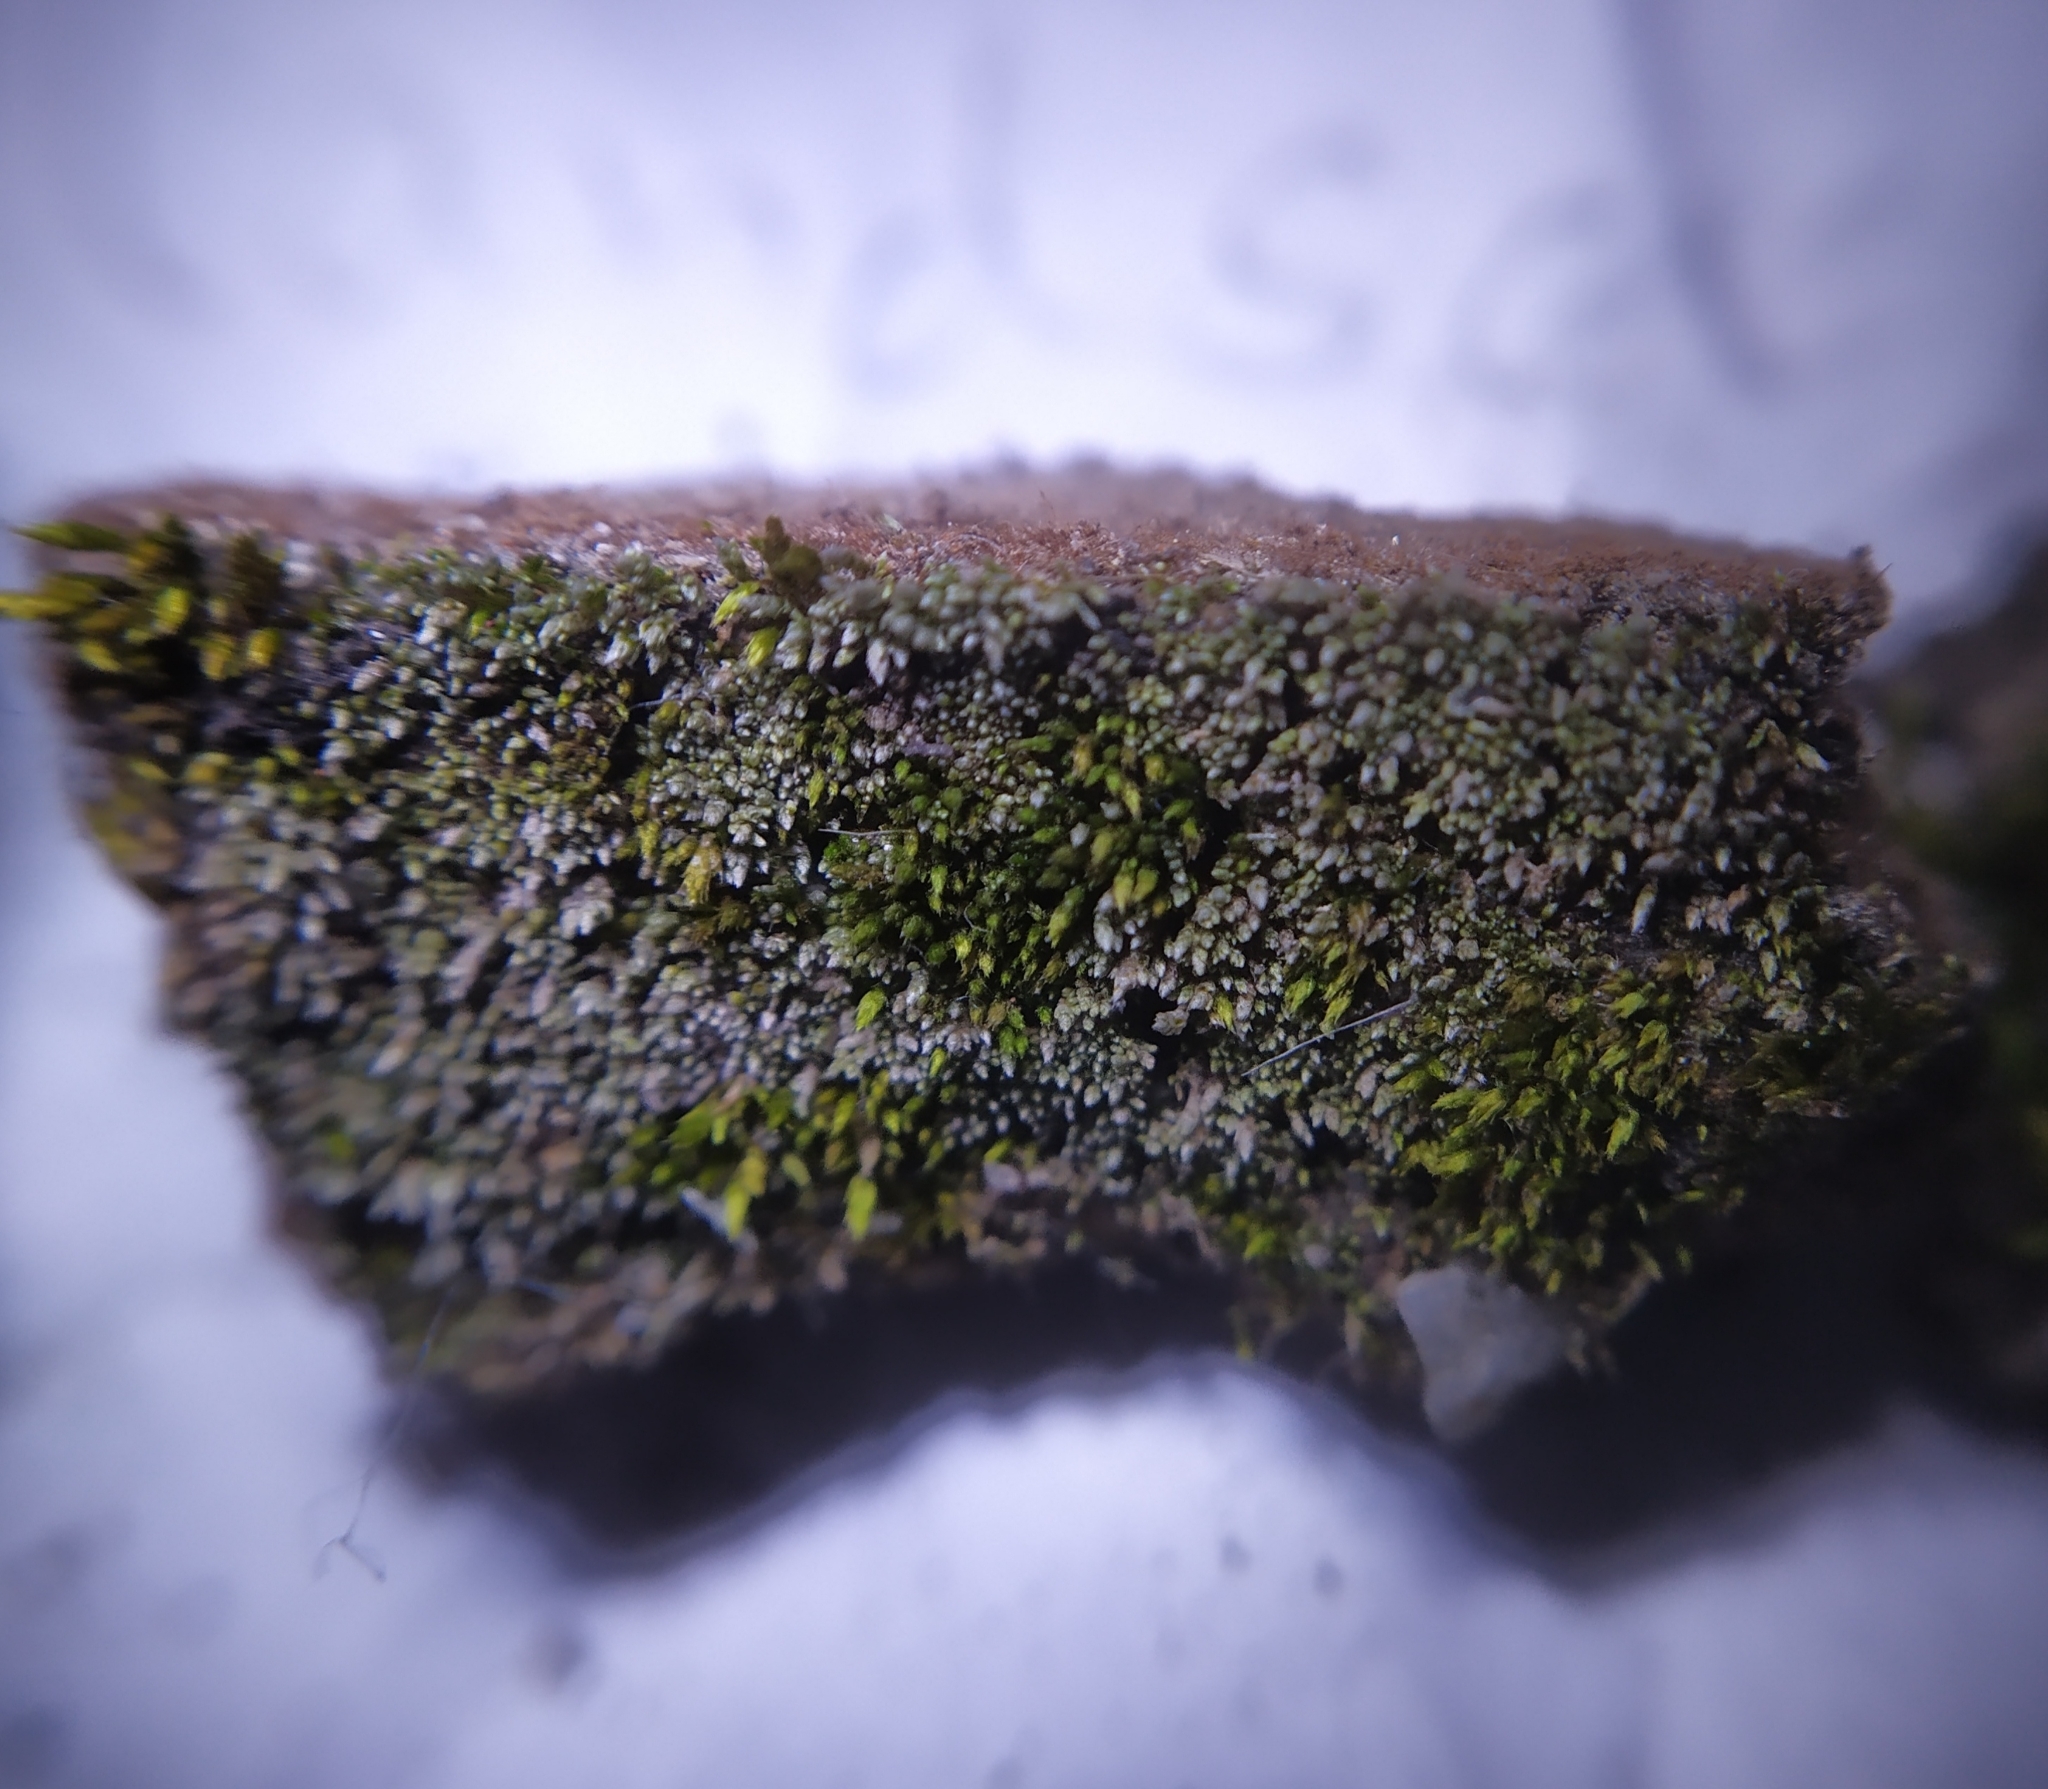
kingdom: Plantae
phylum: Bryophyta
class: Bryopsida
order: Bryales
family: Bryaceae
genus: Bryum
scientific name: Bryum argenteum
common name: Silver-moss
